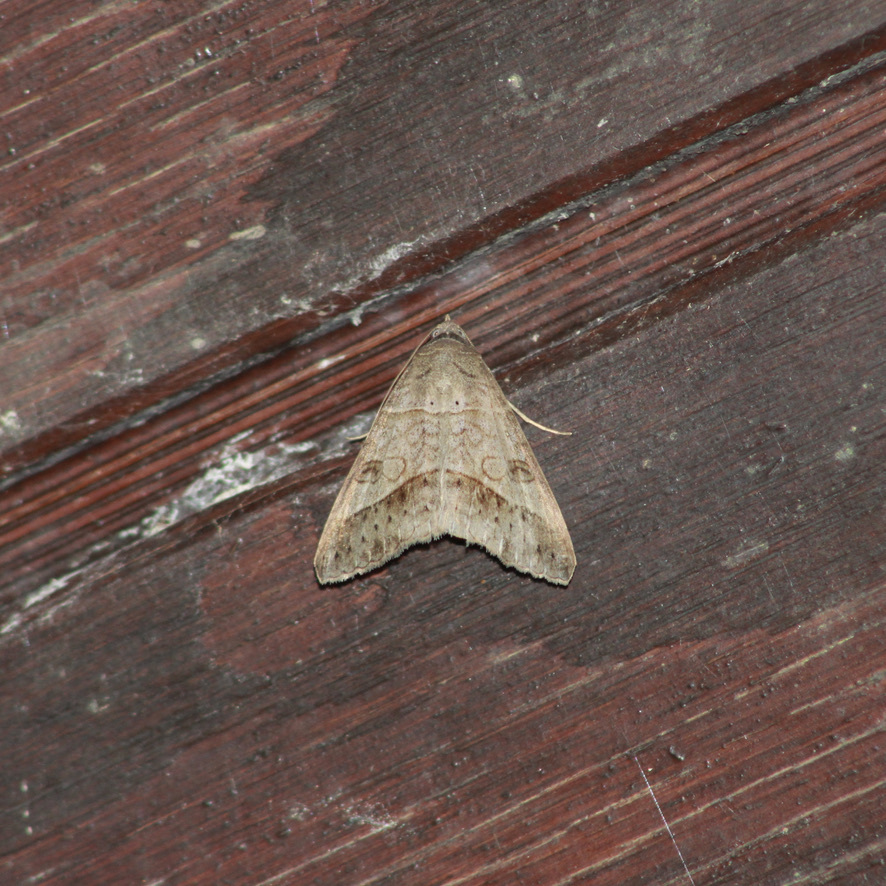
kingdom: Animalia
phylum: Arthropoda
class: Insecta
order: Lepidoptera
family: Erebidae
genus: Mocis
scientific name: Mocis latipes
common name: Striped grass looper
